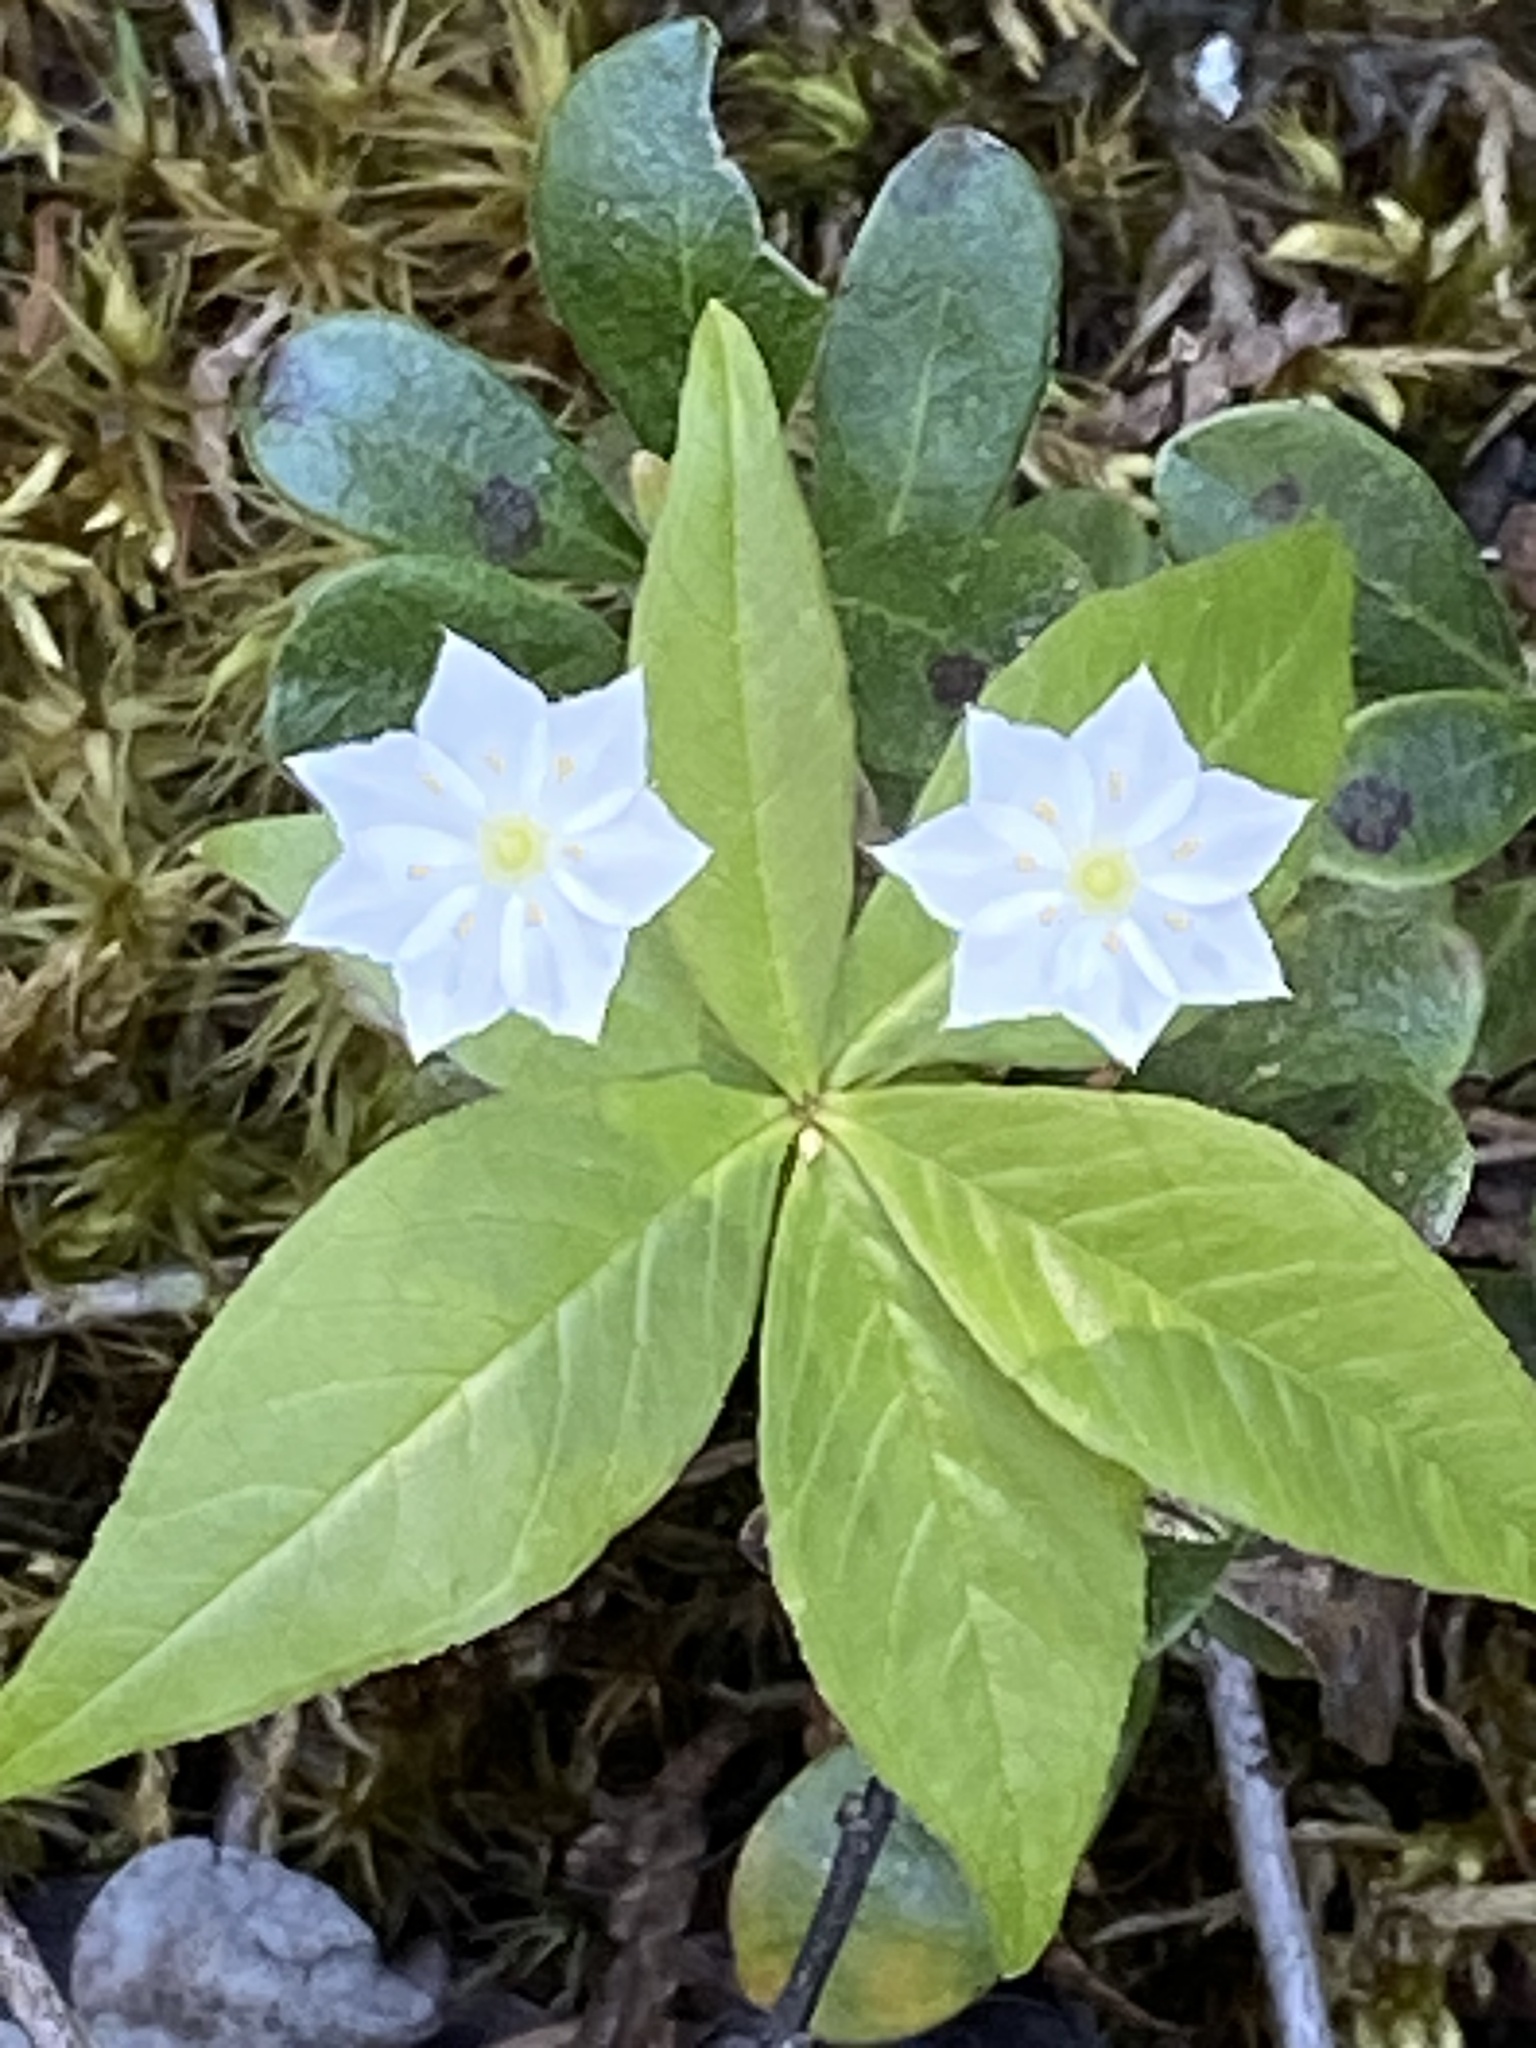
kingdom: Plantae
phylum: Tracheophyta
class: Magnoliopsida
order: Ericales
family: Primulaceae
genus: Lysimachia
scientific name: Lysimachia borealis
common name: American starflower
